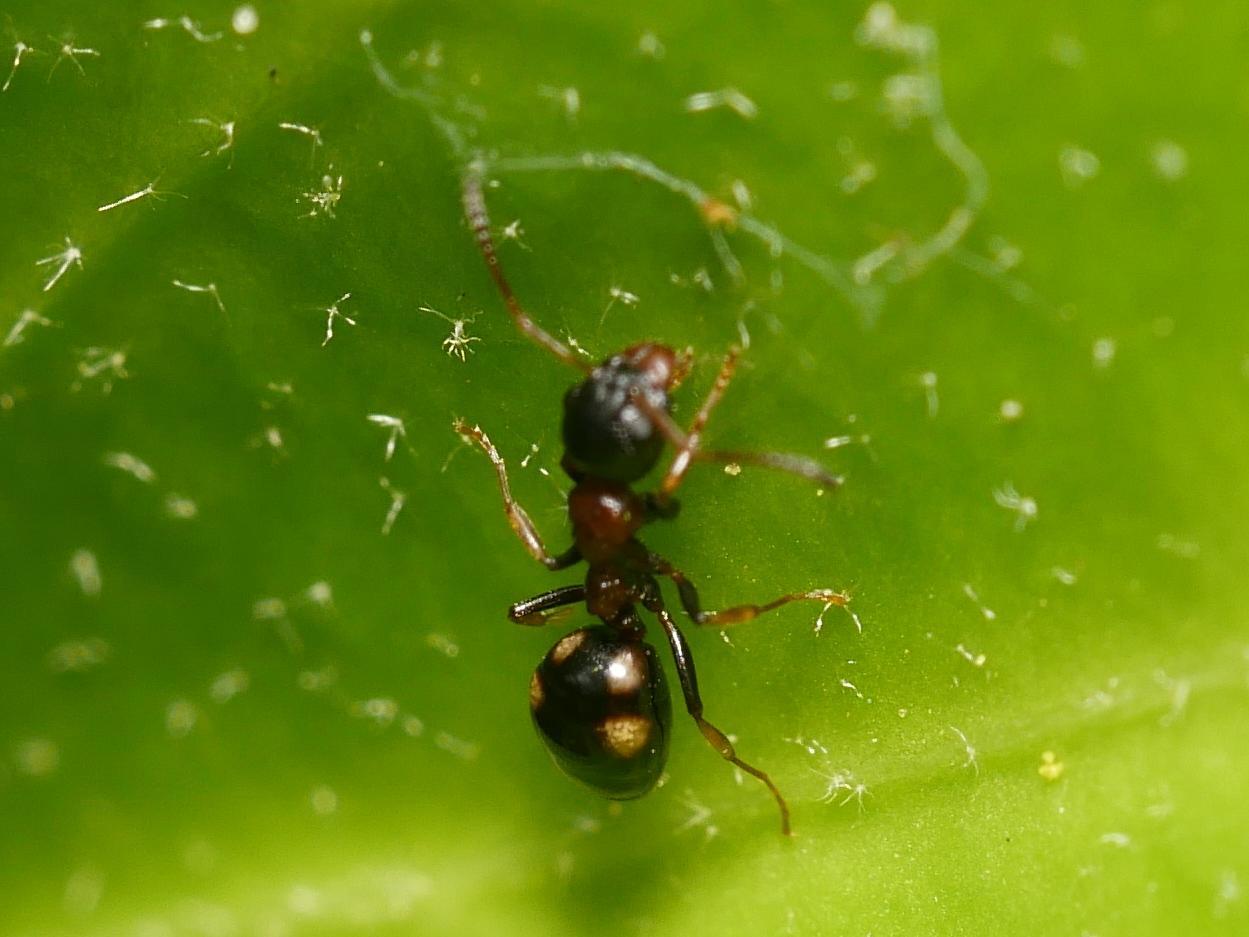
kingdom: Animalia
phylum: Arthropoda
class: Insecta
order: Hymenoptera
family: Formicidae
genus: Dolichoderus
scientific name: Dolichoderus quadripunctatus
